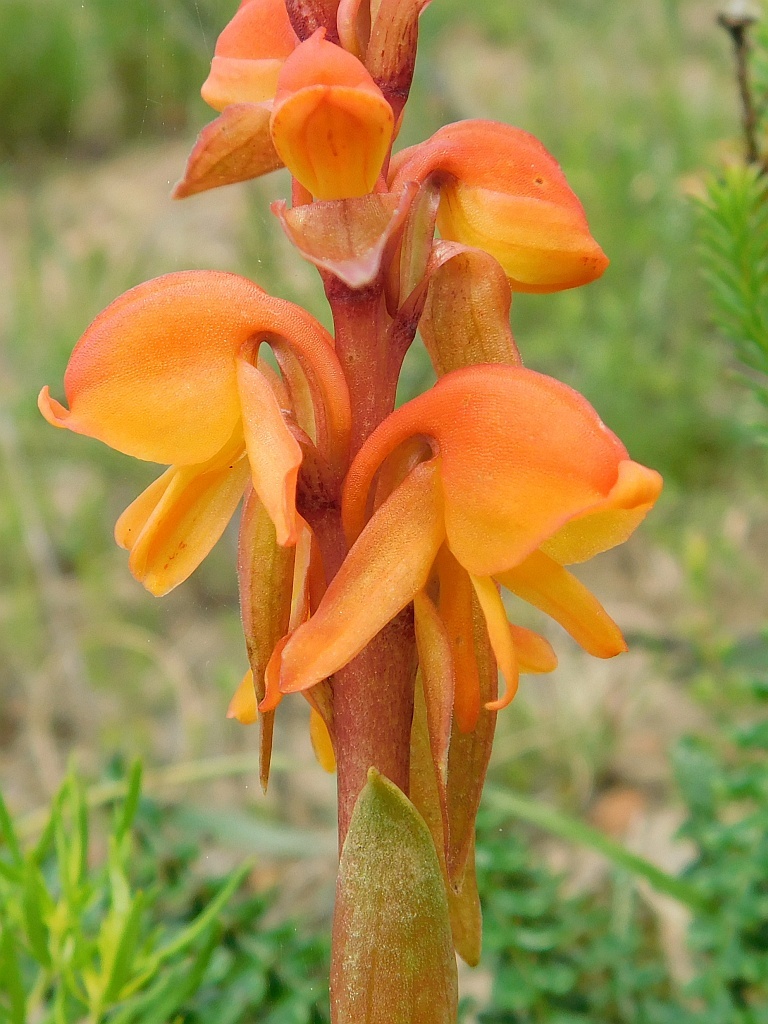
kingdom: Plantae
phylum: Tracheophyta
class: Liliopsida
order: Asparagales
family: Orchidaceae
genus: Satyrium
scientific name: Satyrium coriifolium
